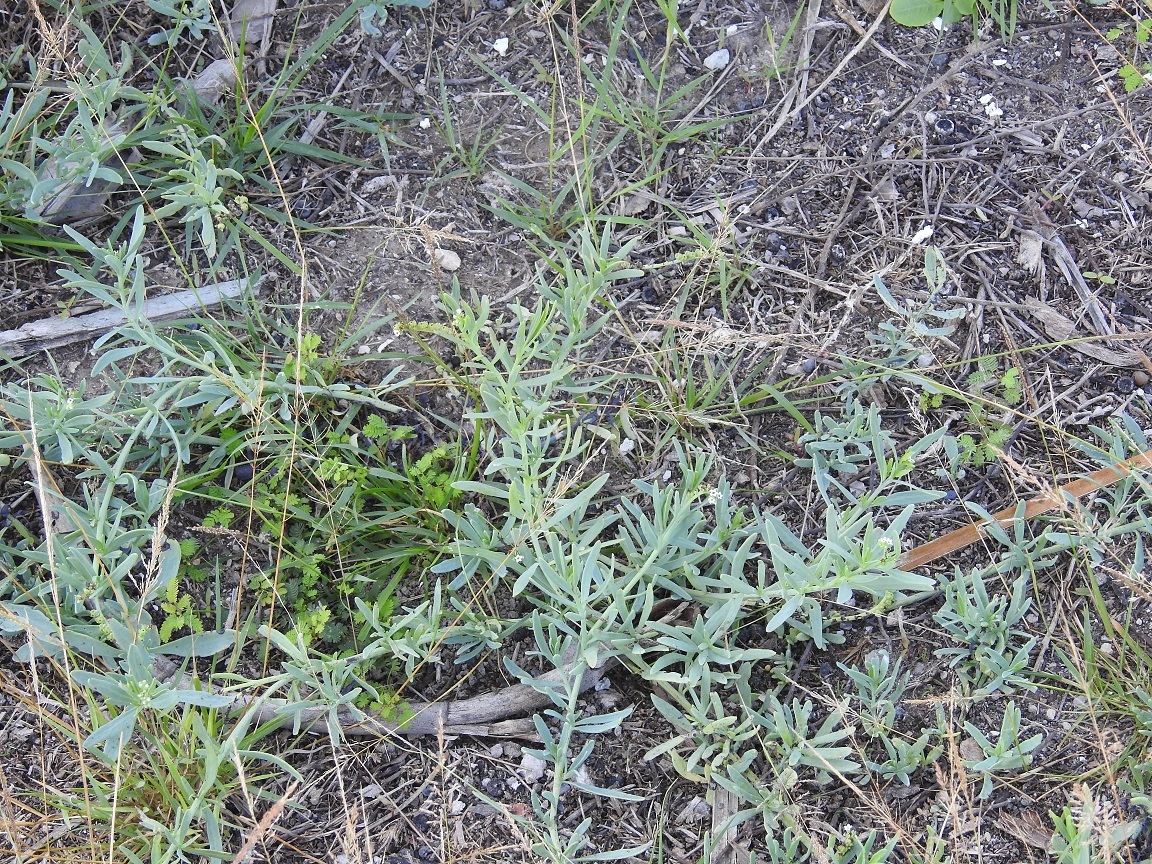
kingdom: Plantae
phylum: Tracheophyta
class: Magnoliopsida
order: Boraginales
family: Heliotropiaceae
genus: Heliotropium
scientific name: Heliotropium curassavicum
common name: Seaside heliotrope
